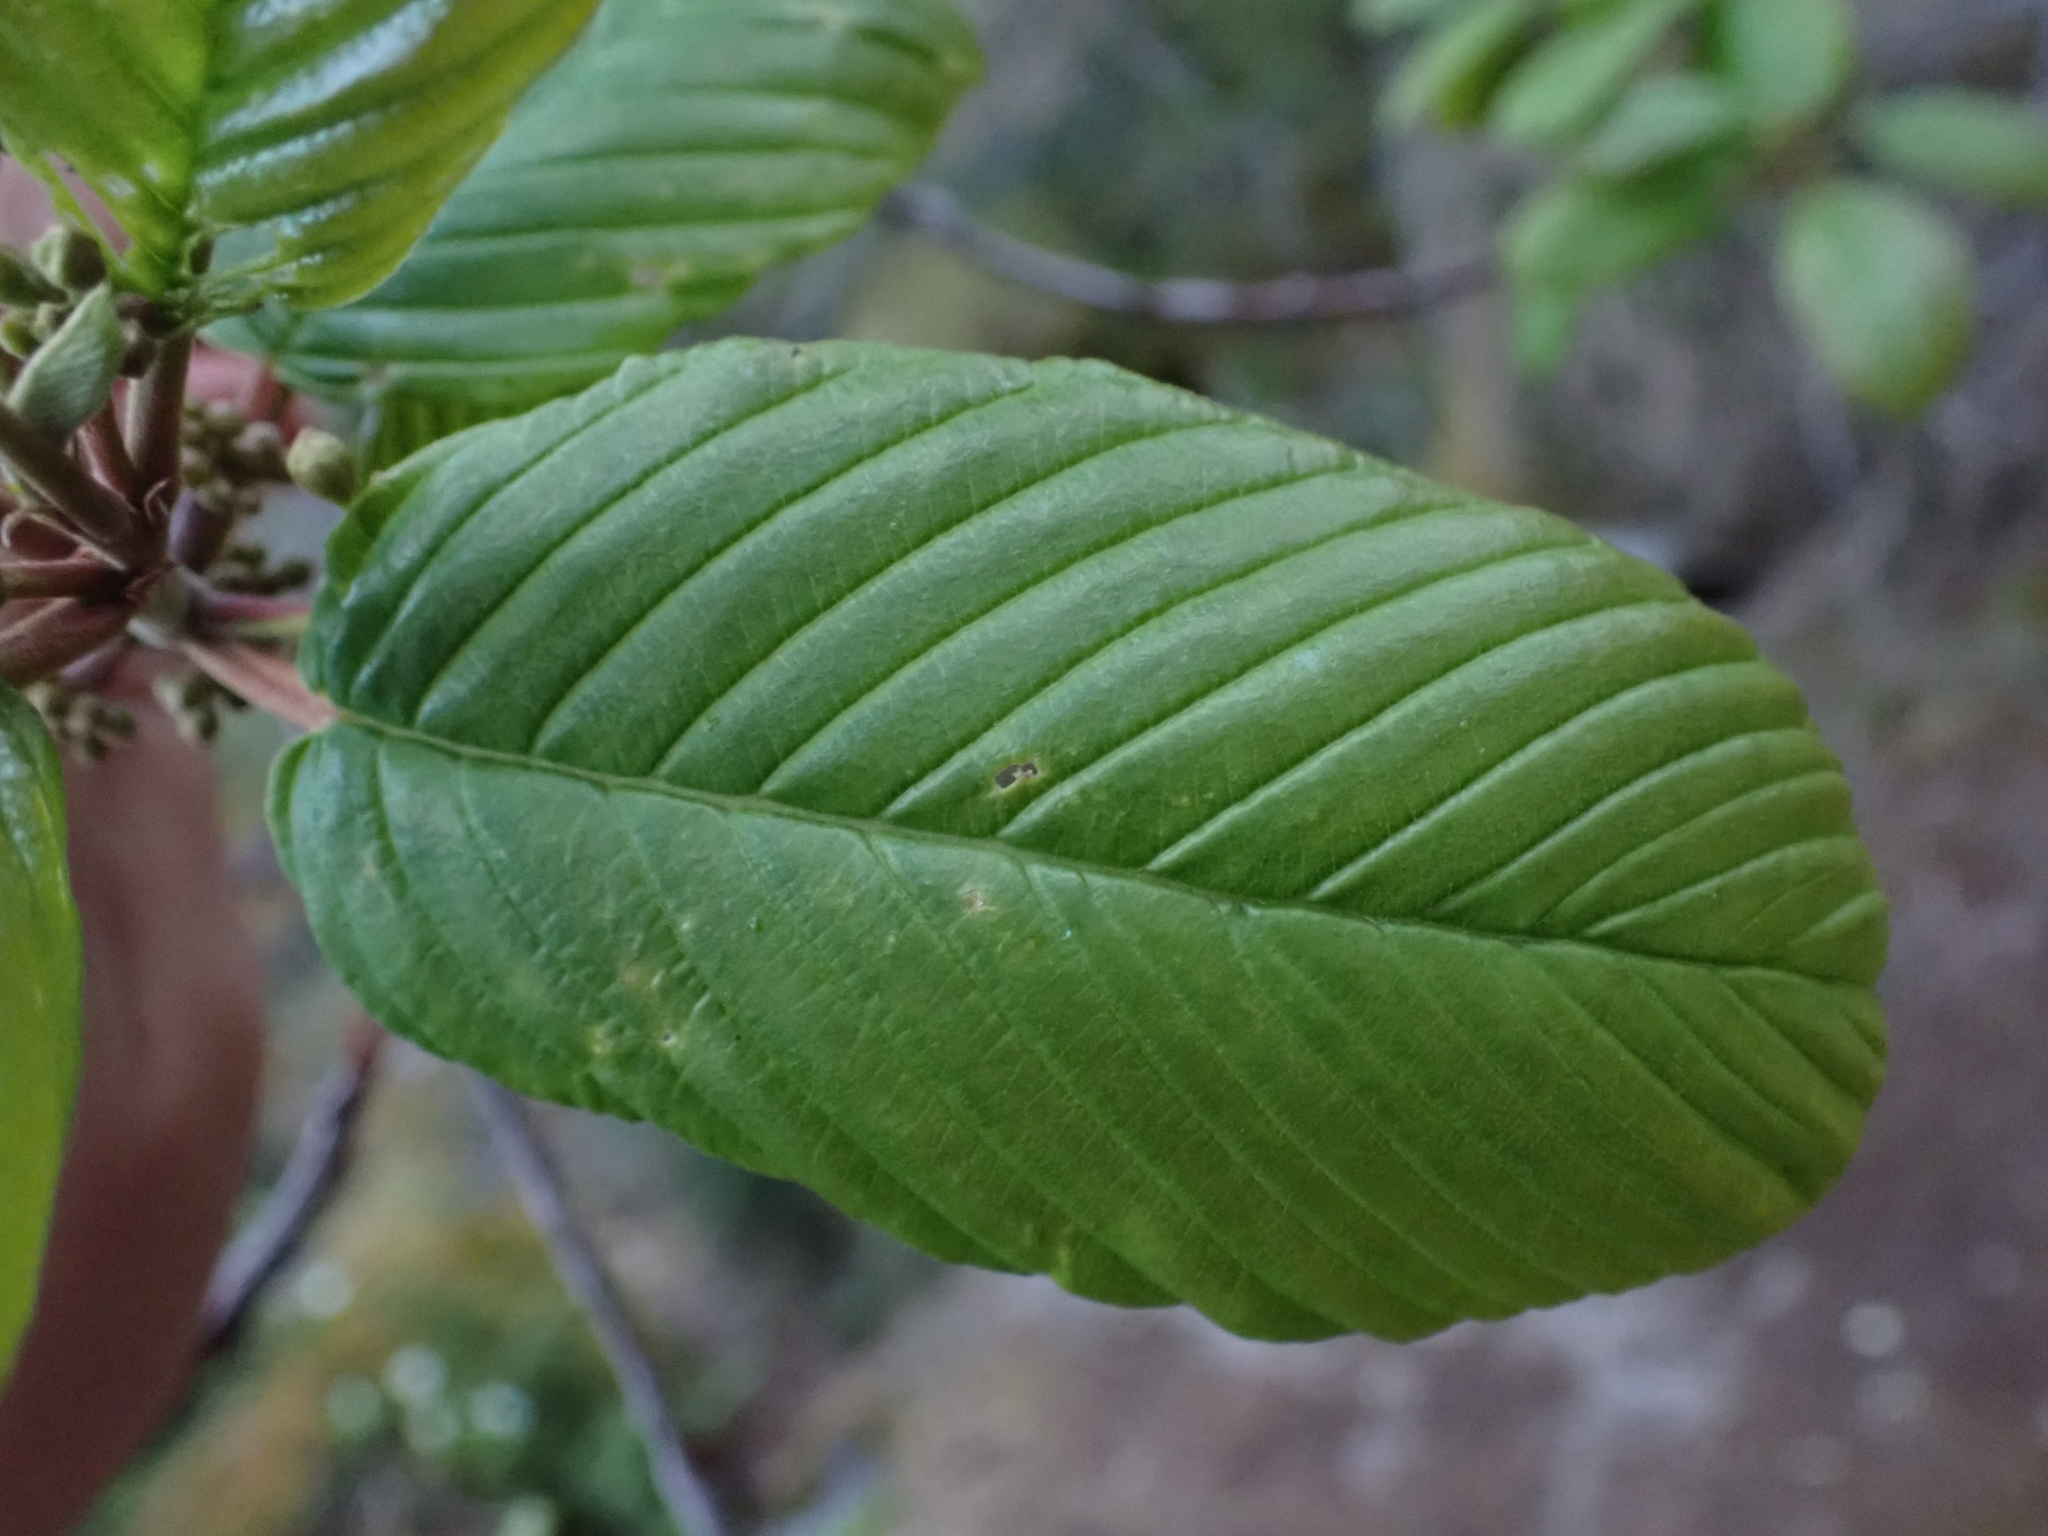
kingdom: Plantae
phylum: Tracheophyta
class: Magnoliopsida
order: Rosales
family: Rhamnaceae
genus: Frangula
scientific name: Frangula purshiana
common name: Cascara buckthorn
